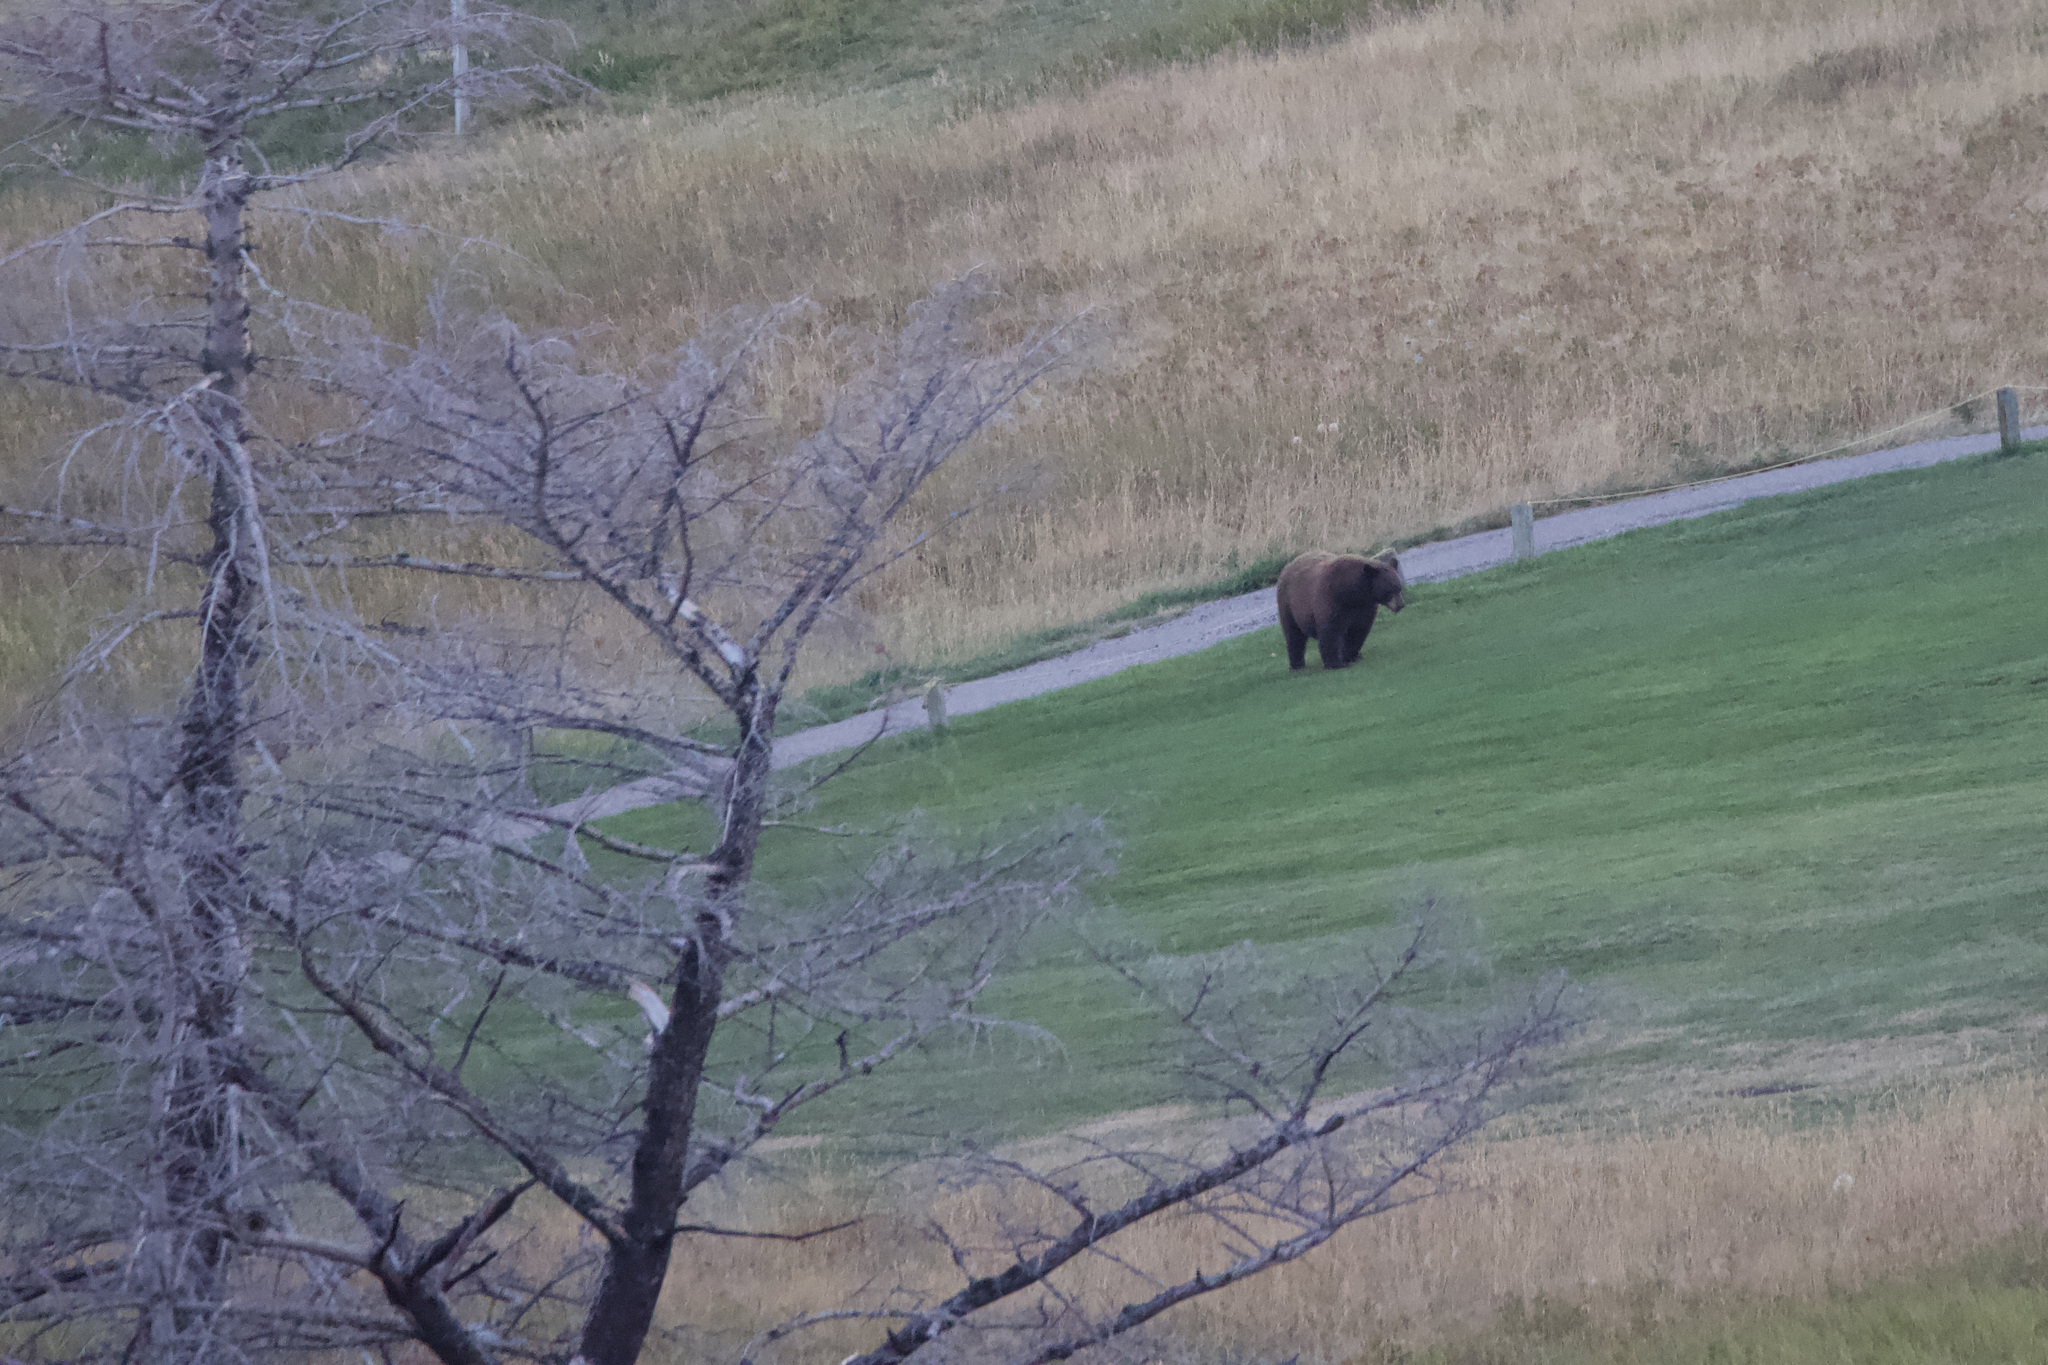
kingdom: Animalia
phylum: Chordata
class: Mammalia
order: Carnivora
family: Ursidae
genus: Ursus
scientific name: Ursus americanus
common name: American black bear
